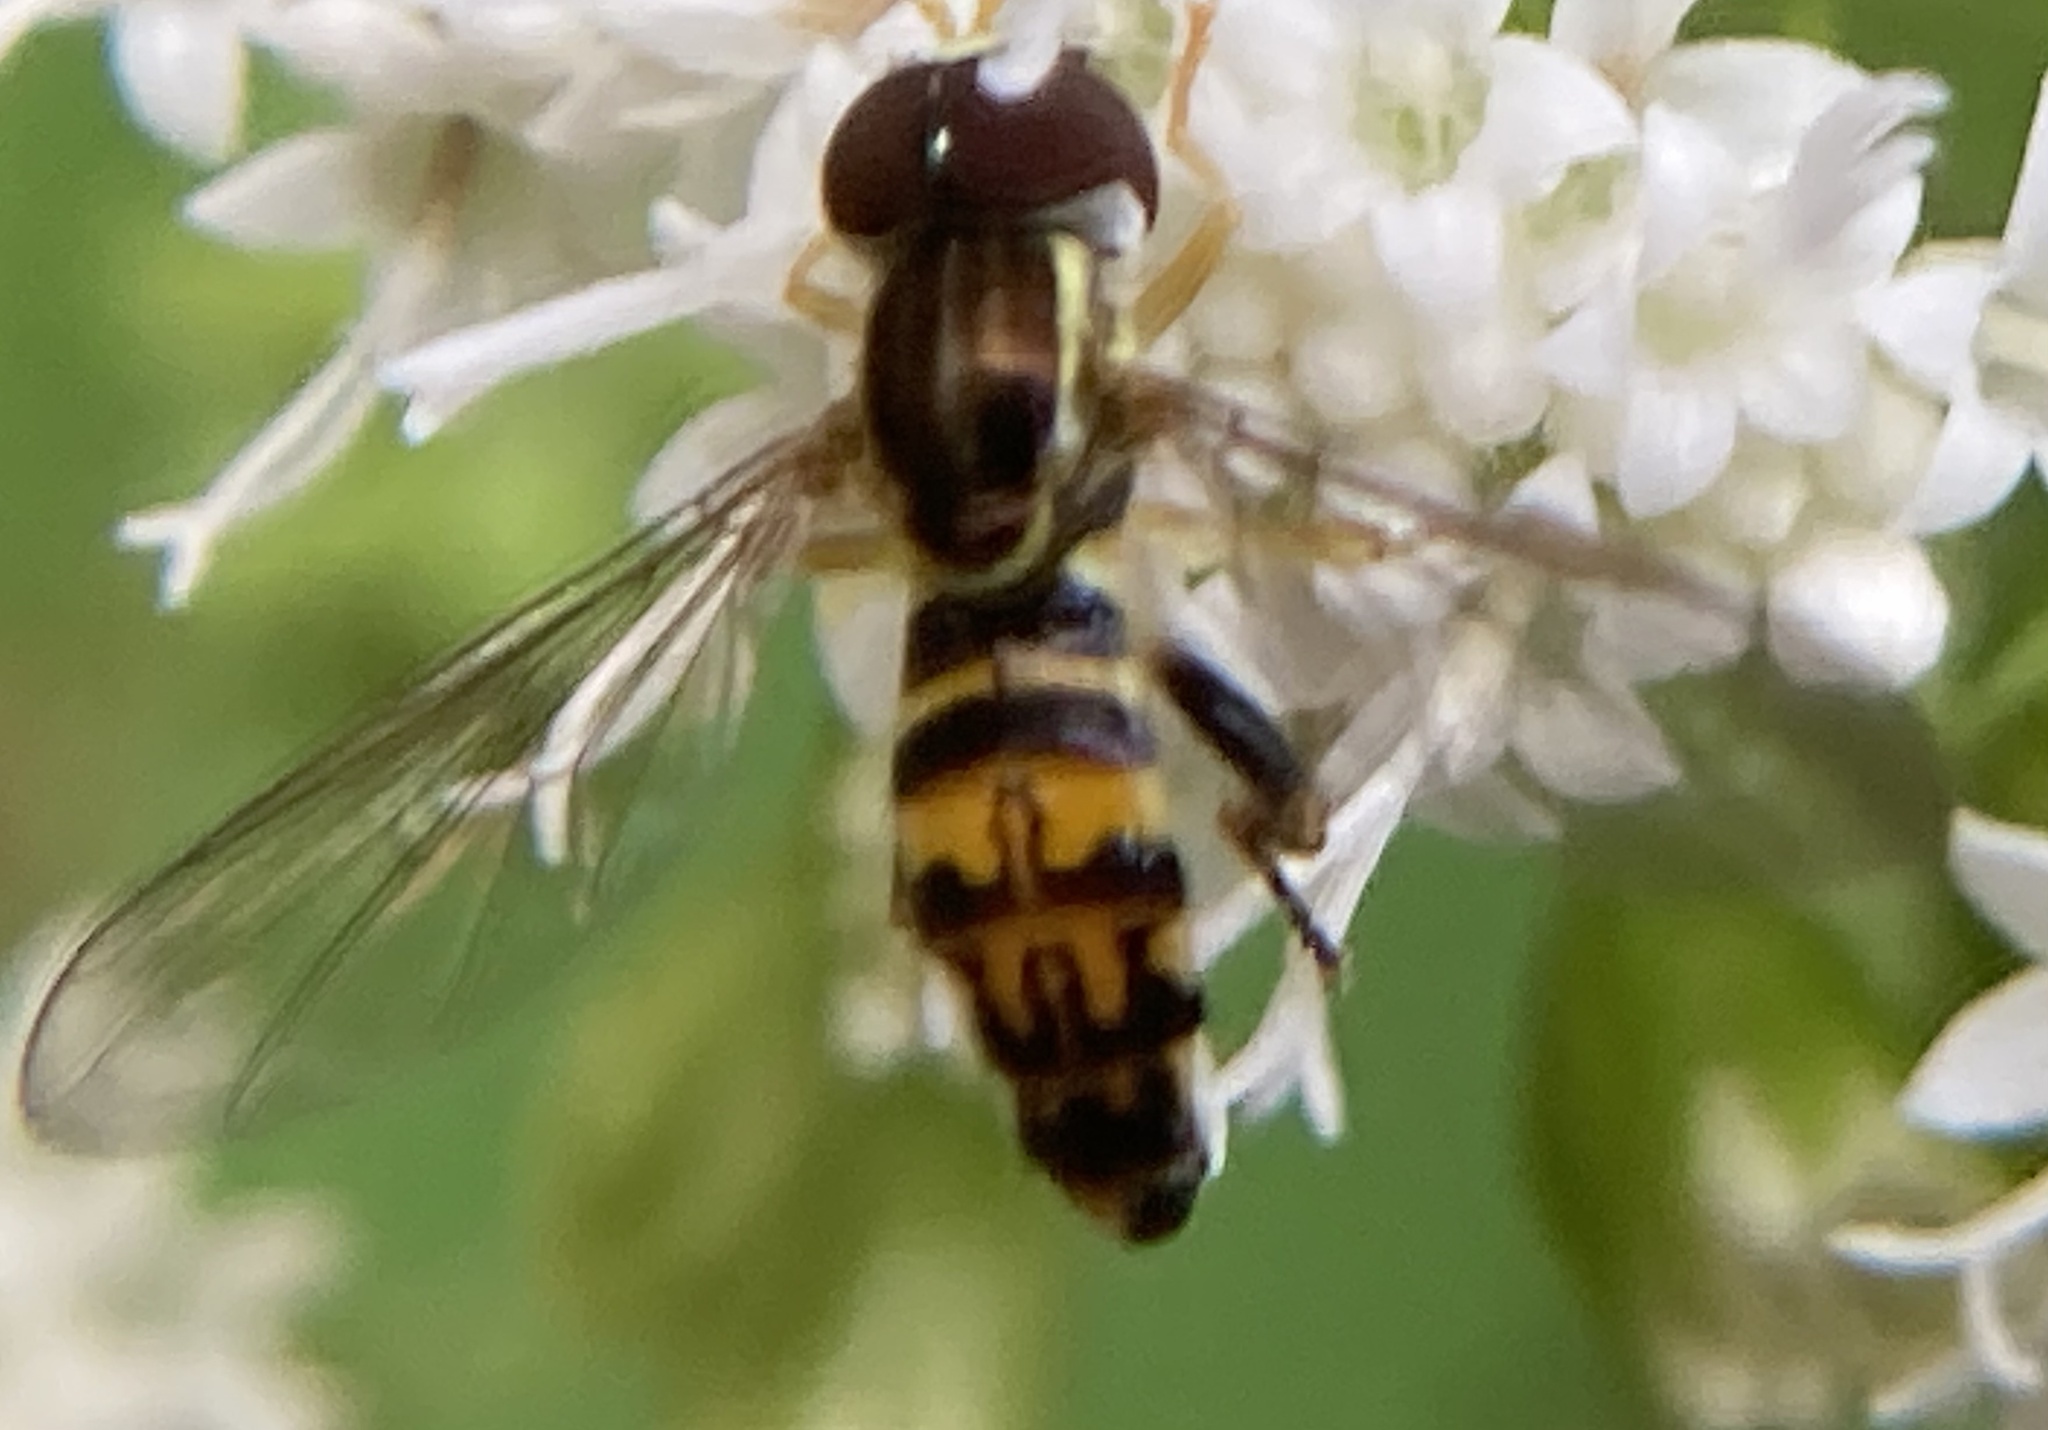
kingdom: Animalia
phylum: Arthropoda
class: Insecta
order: Diptera
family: Syrphidae
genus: Toxomerus
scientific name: Toxomerus geminatus
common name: Eastern calligrapher
